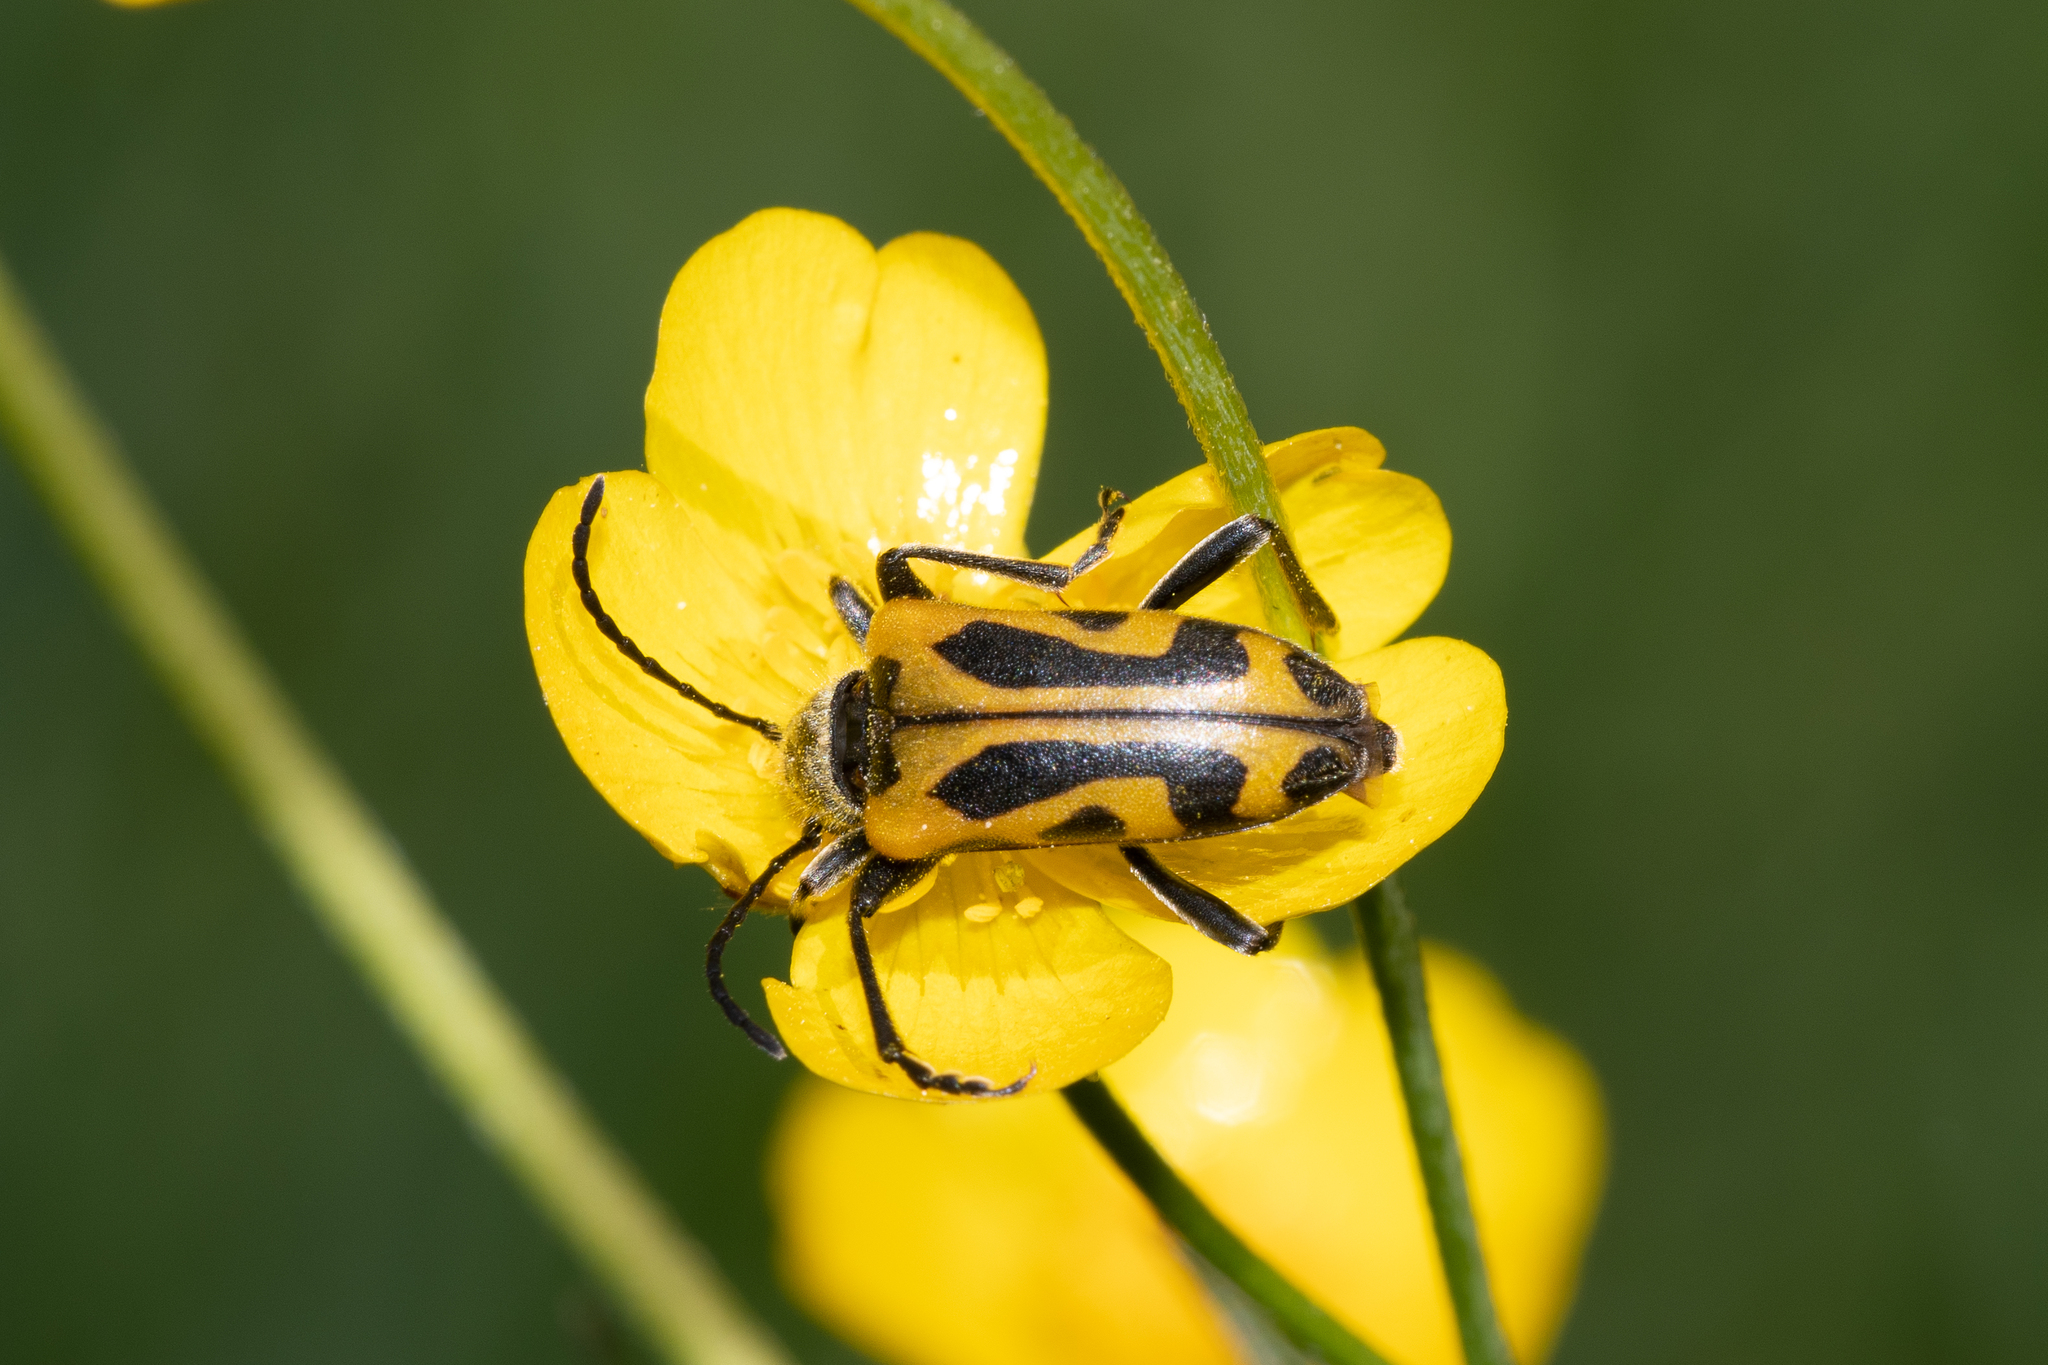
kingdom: Animalia
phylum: Arthropoda
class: Insecta
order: Coleoptera
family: Cerambycidae
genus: Brachyta
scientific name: Brachyta interrogationis
